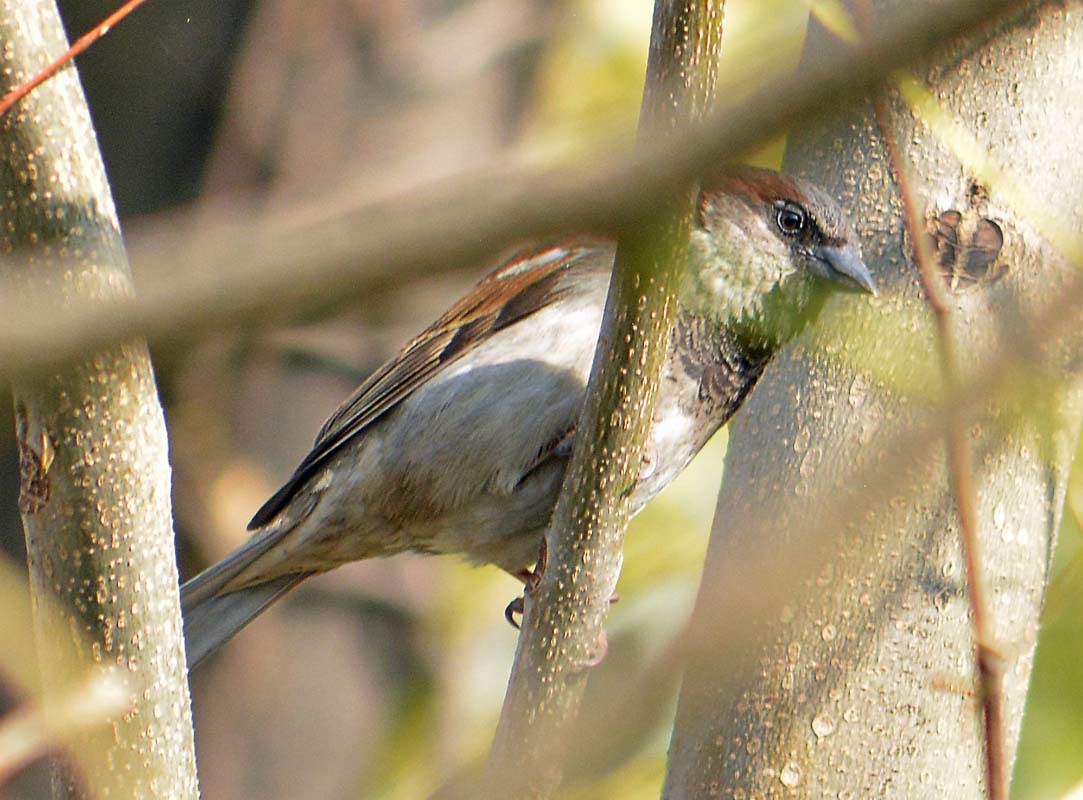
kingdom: Animalia
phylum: Chordata
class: Aves
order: Passeriformes
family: Passeridae
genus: Passer
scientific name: Passer domesticus
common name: House sparrow
